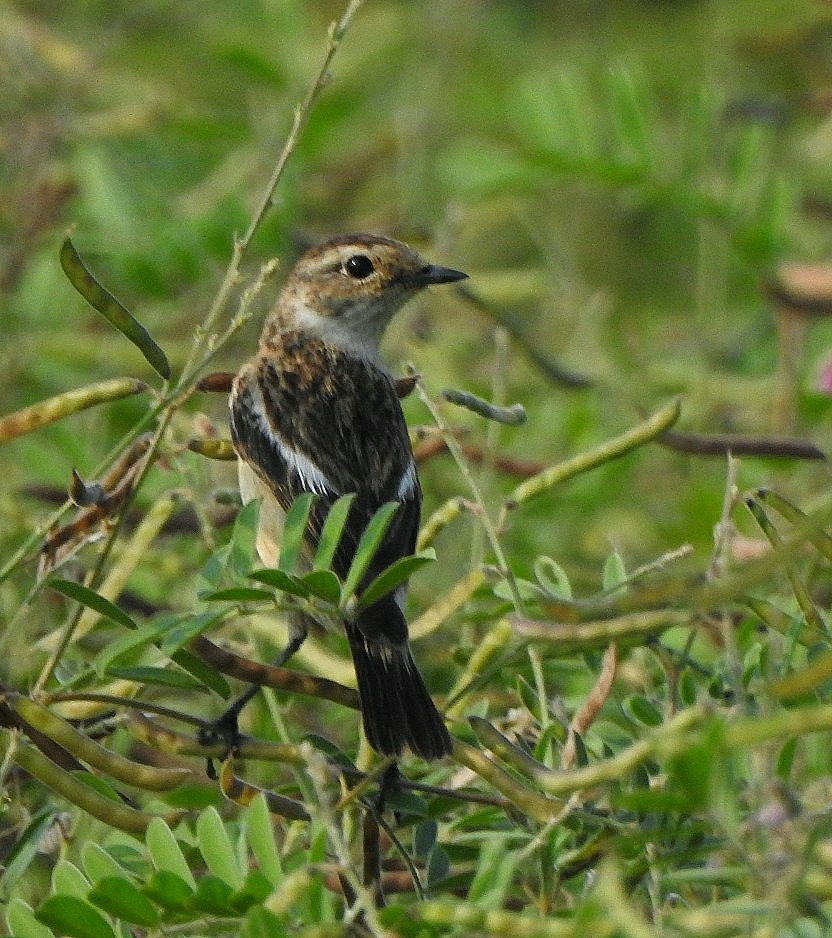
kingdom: Animalia
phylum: Chordata
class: Aves
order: Passeriformes
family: Muscicapidae
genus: Saxicola
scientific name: Saxicola maurus
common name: Siberian stonechat
